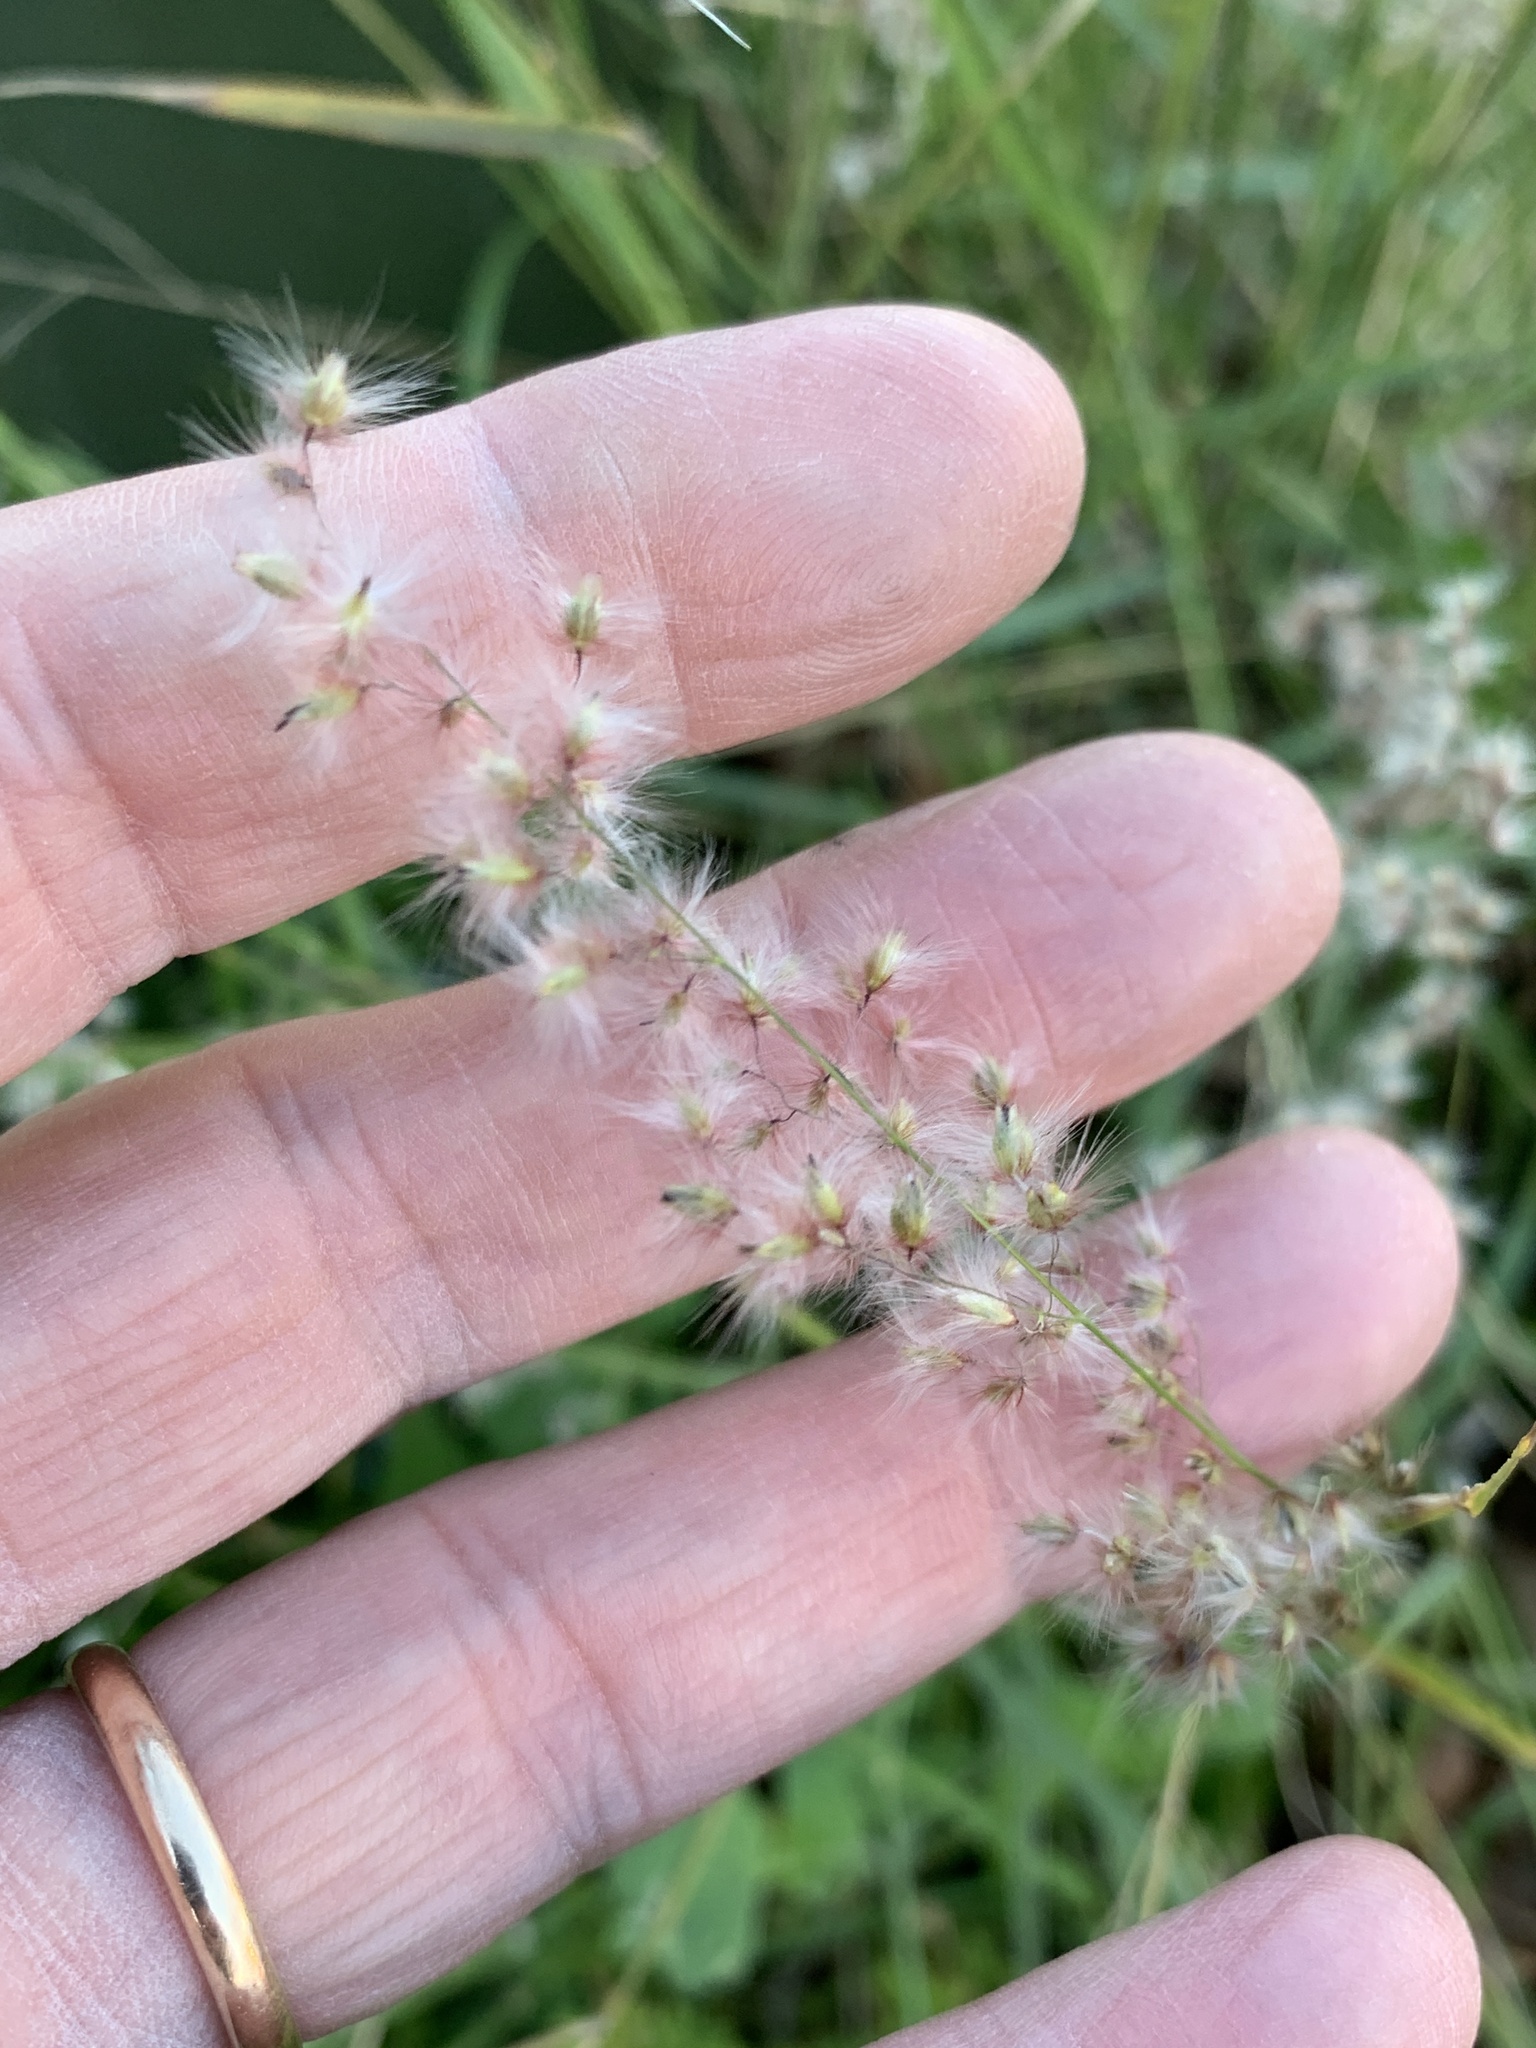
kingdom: Plantae
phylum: Tracheophyta
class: Liliopsida
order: Poales
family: Poaceae
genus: Melinis
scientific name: Melinis repens
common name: Rose natal grass
